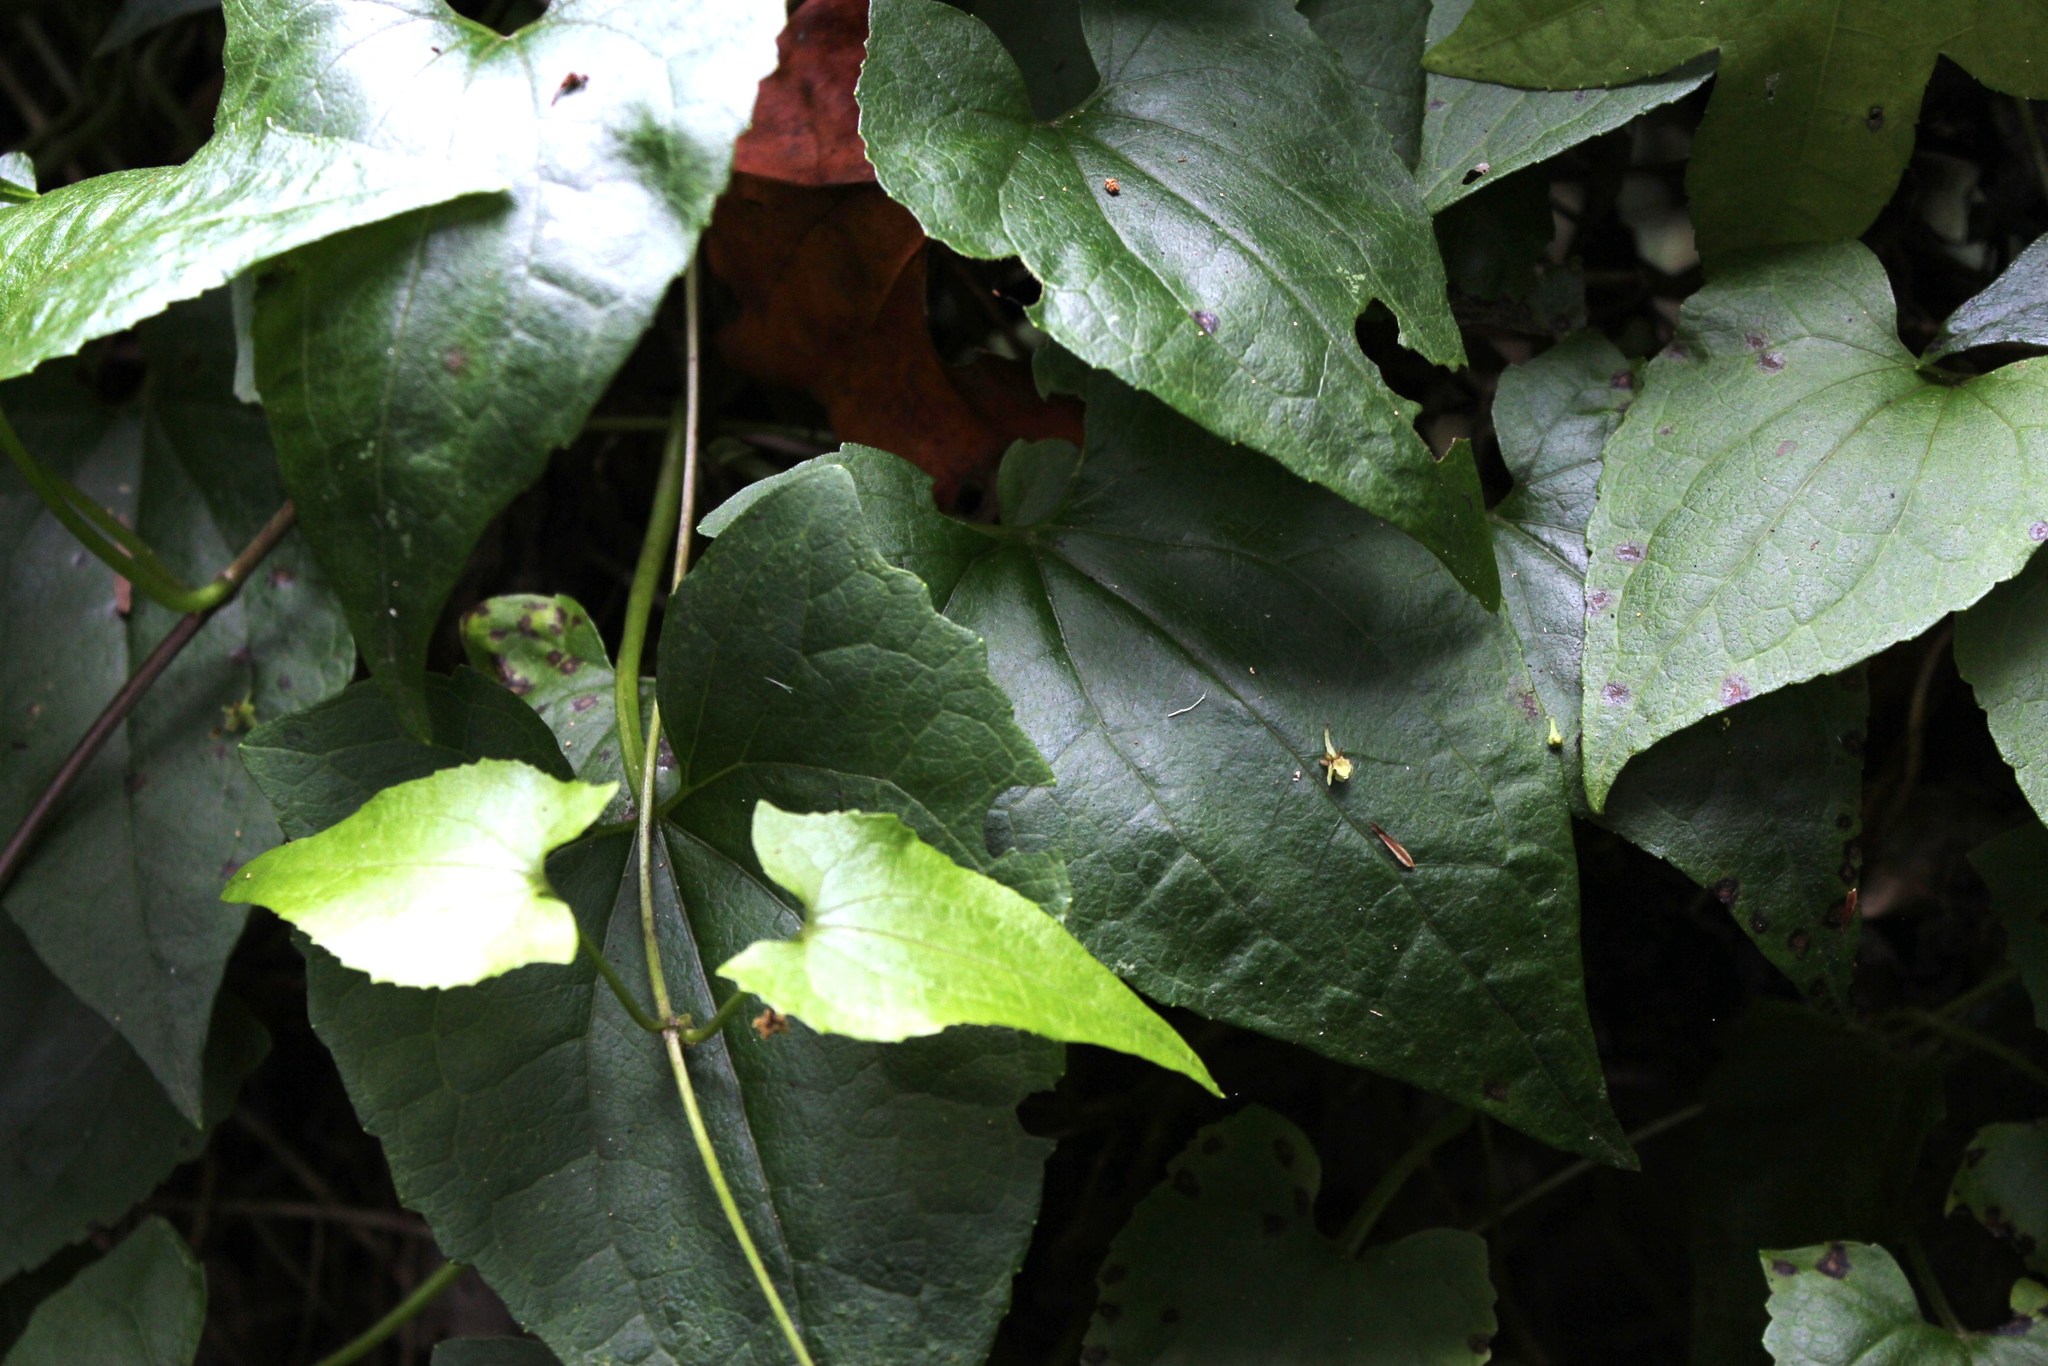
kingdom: Plantae
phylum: Tracheophyta
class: Magnoliopsida
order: Asterales
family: Asteraceae
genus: Senecio
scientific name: Senecio deltoideus
